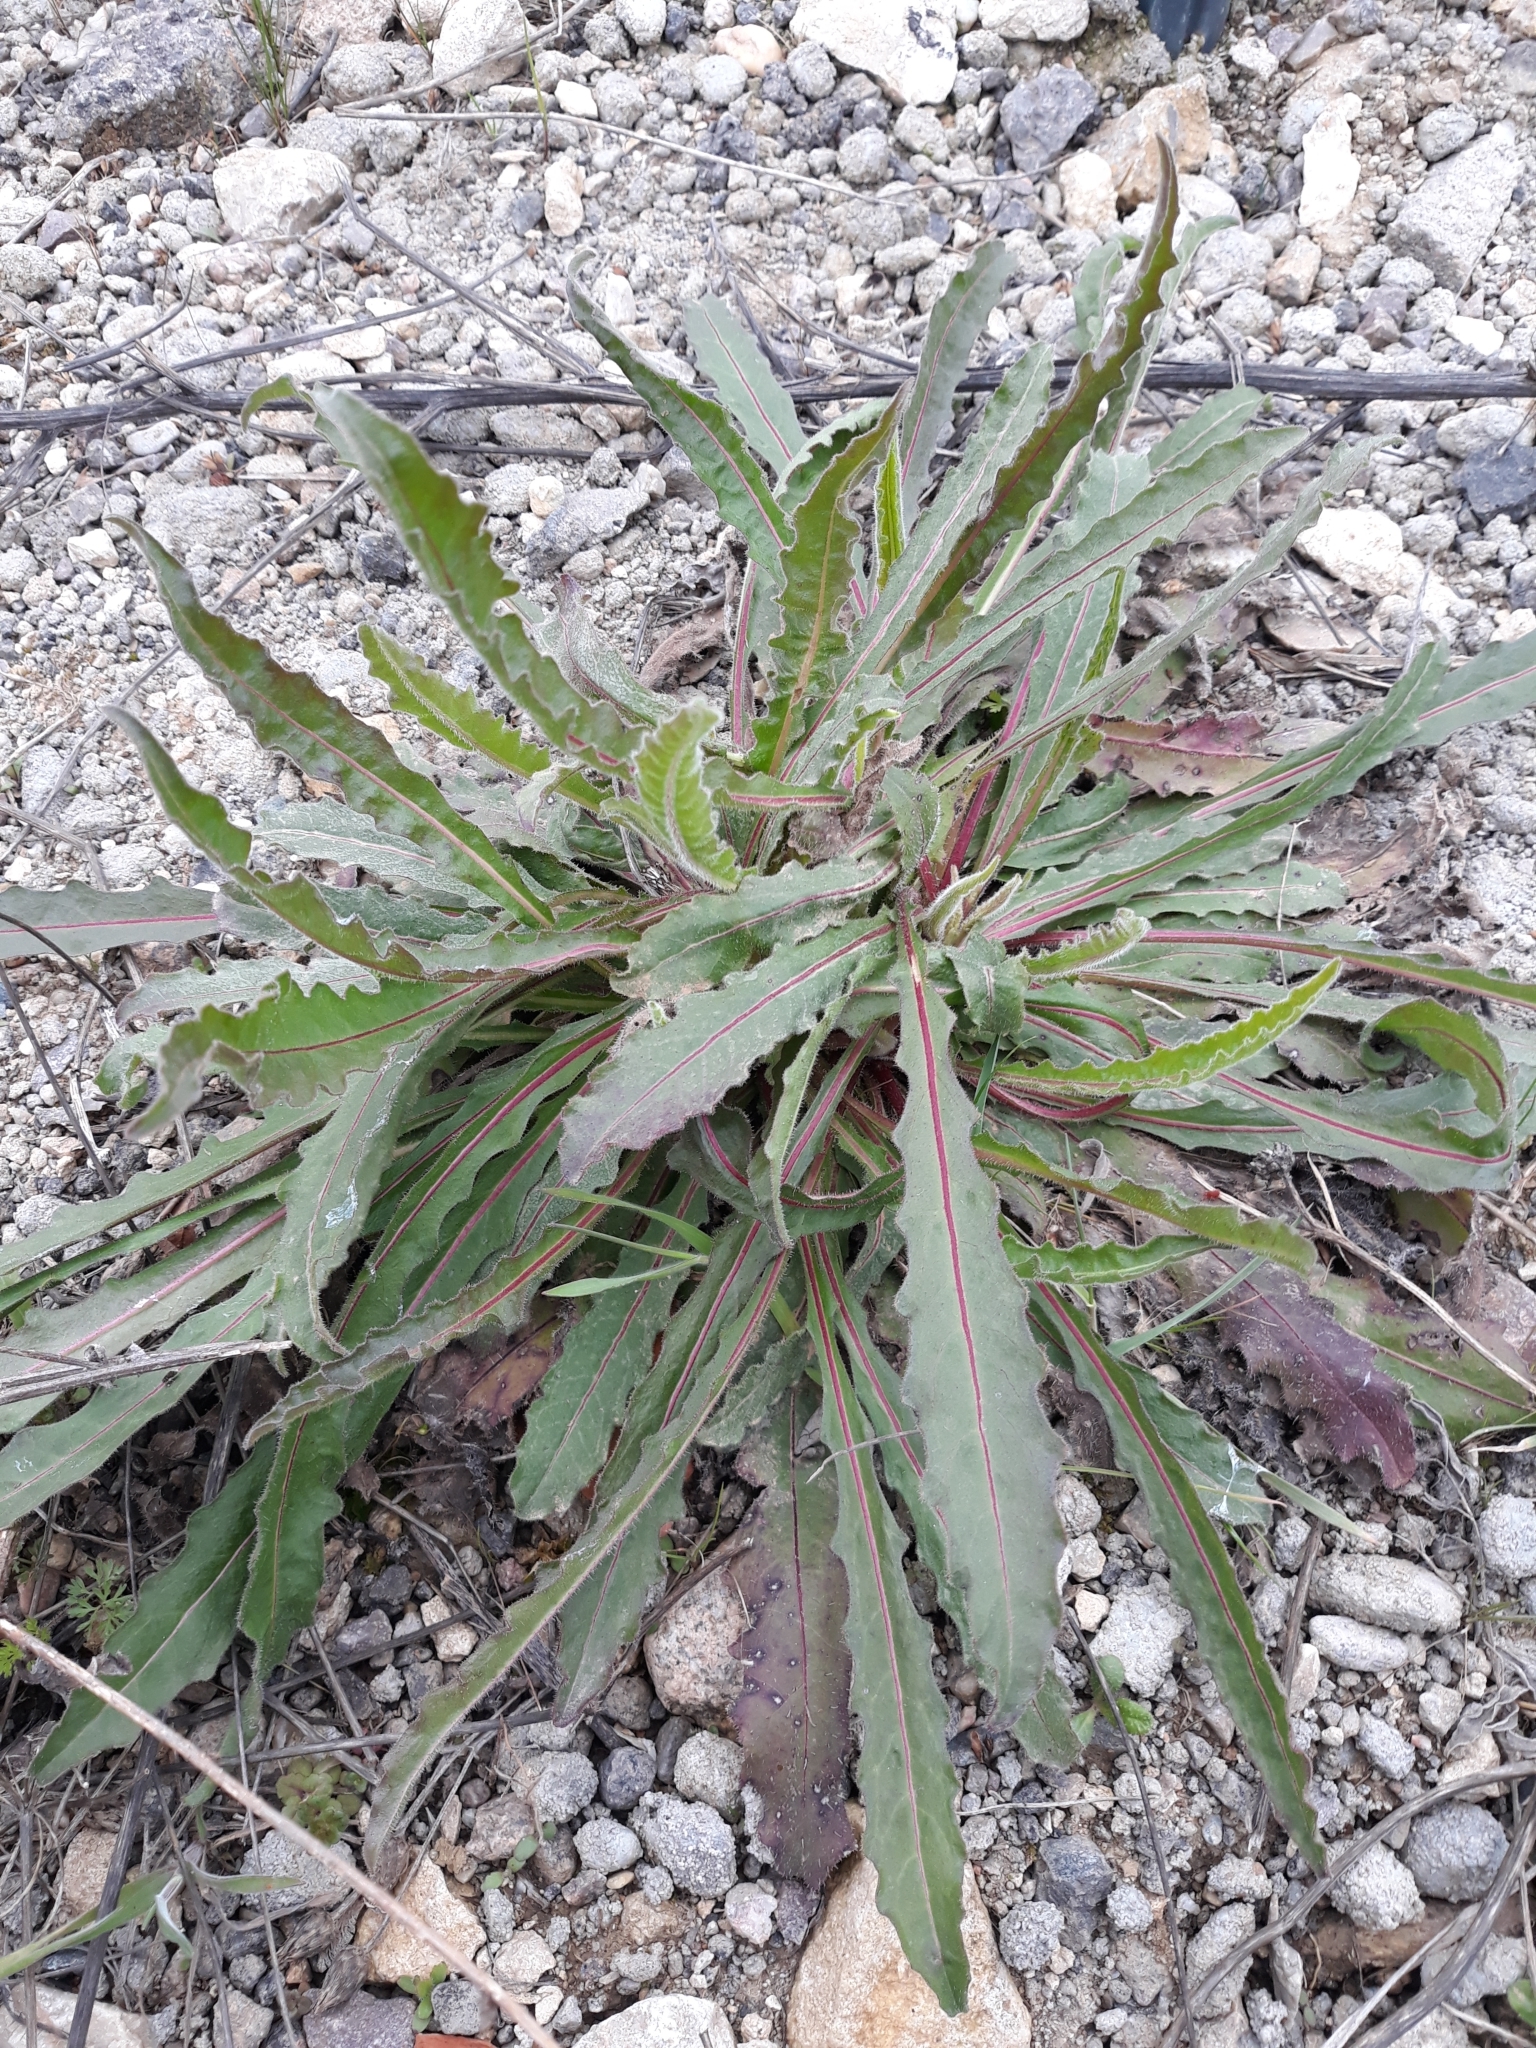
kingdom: Plantae
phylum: Tracheophyta
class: Magnoliopsida
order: Asterales
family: Asteraceae
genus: Picris
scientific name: Picris hieracioides
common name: Hawkweed oxtongue
